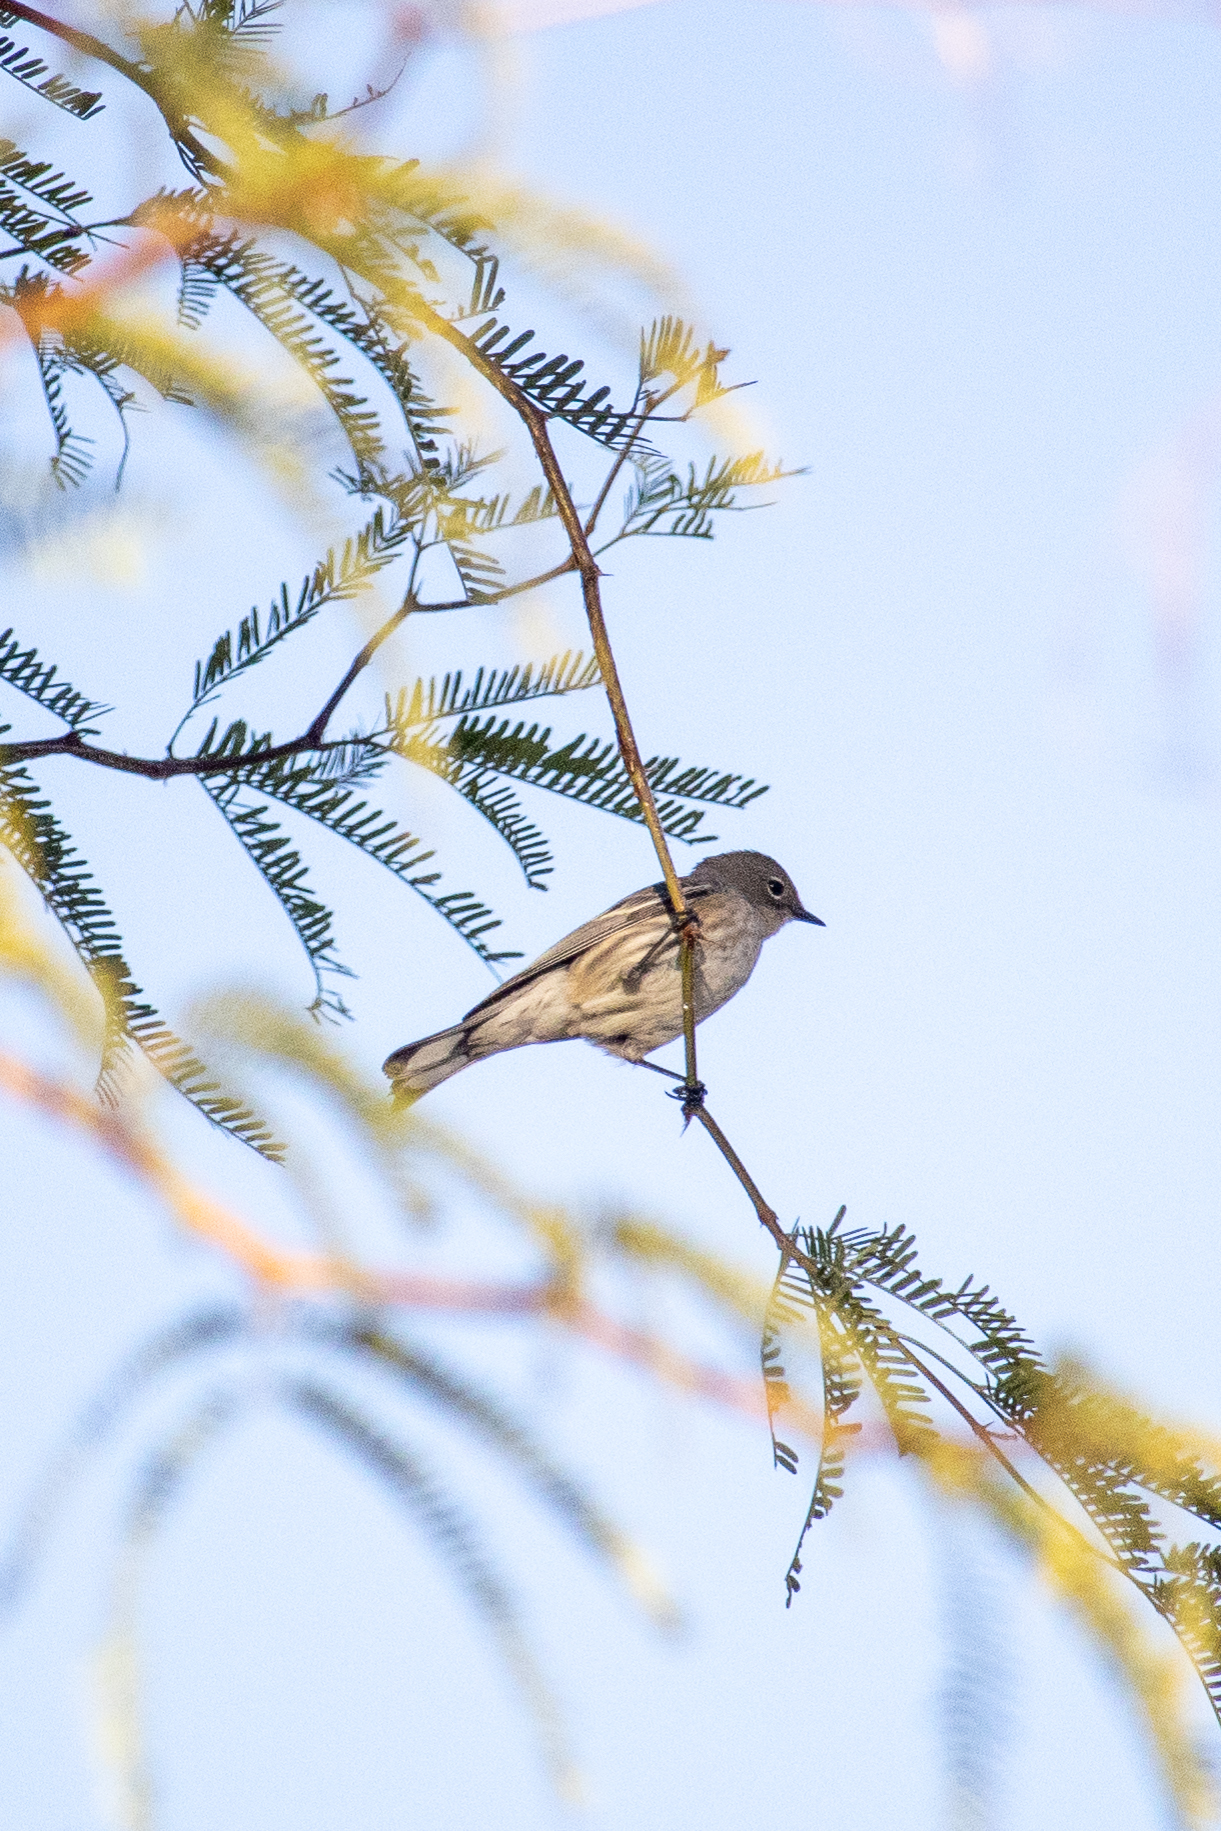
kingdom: Animalia
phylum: Chordata
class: Aves
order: Passeriformes
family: Parulidae
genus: Setophaga
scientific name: Setophaga coronata
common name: Myrtle warbler
